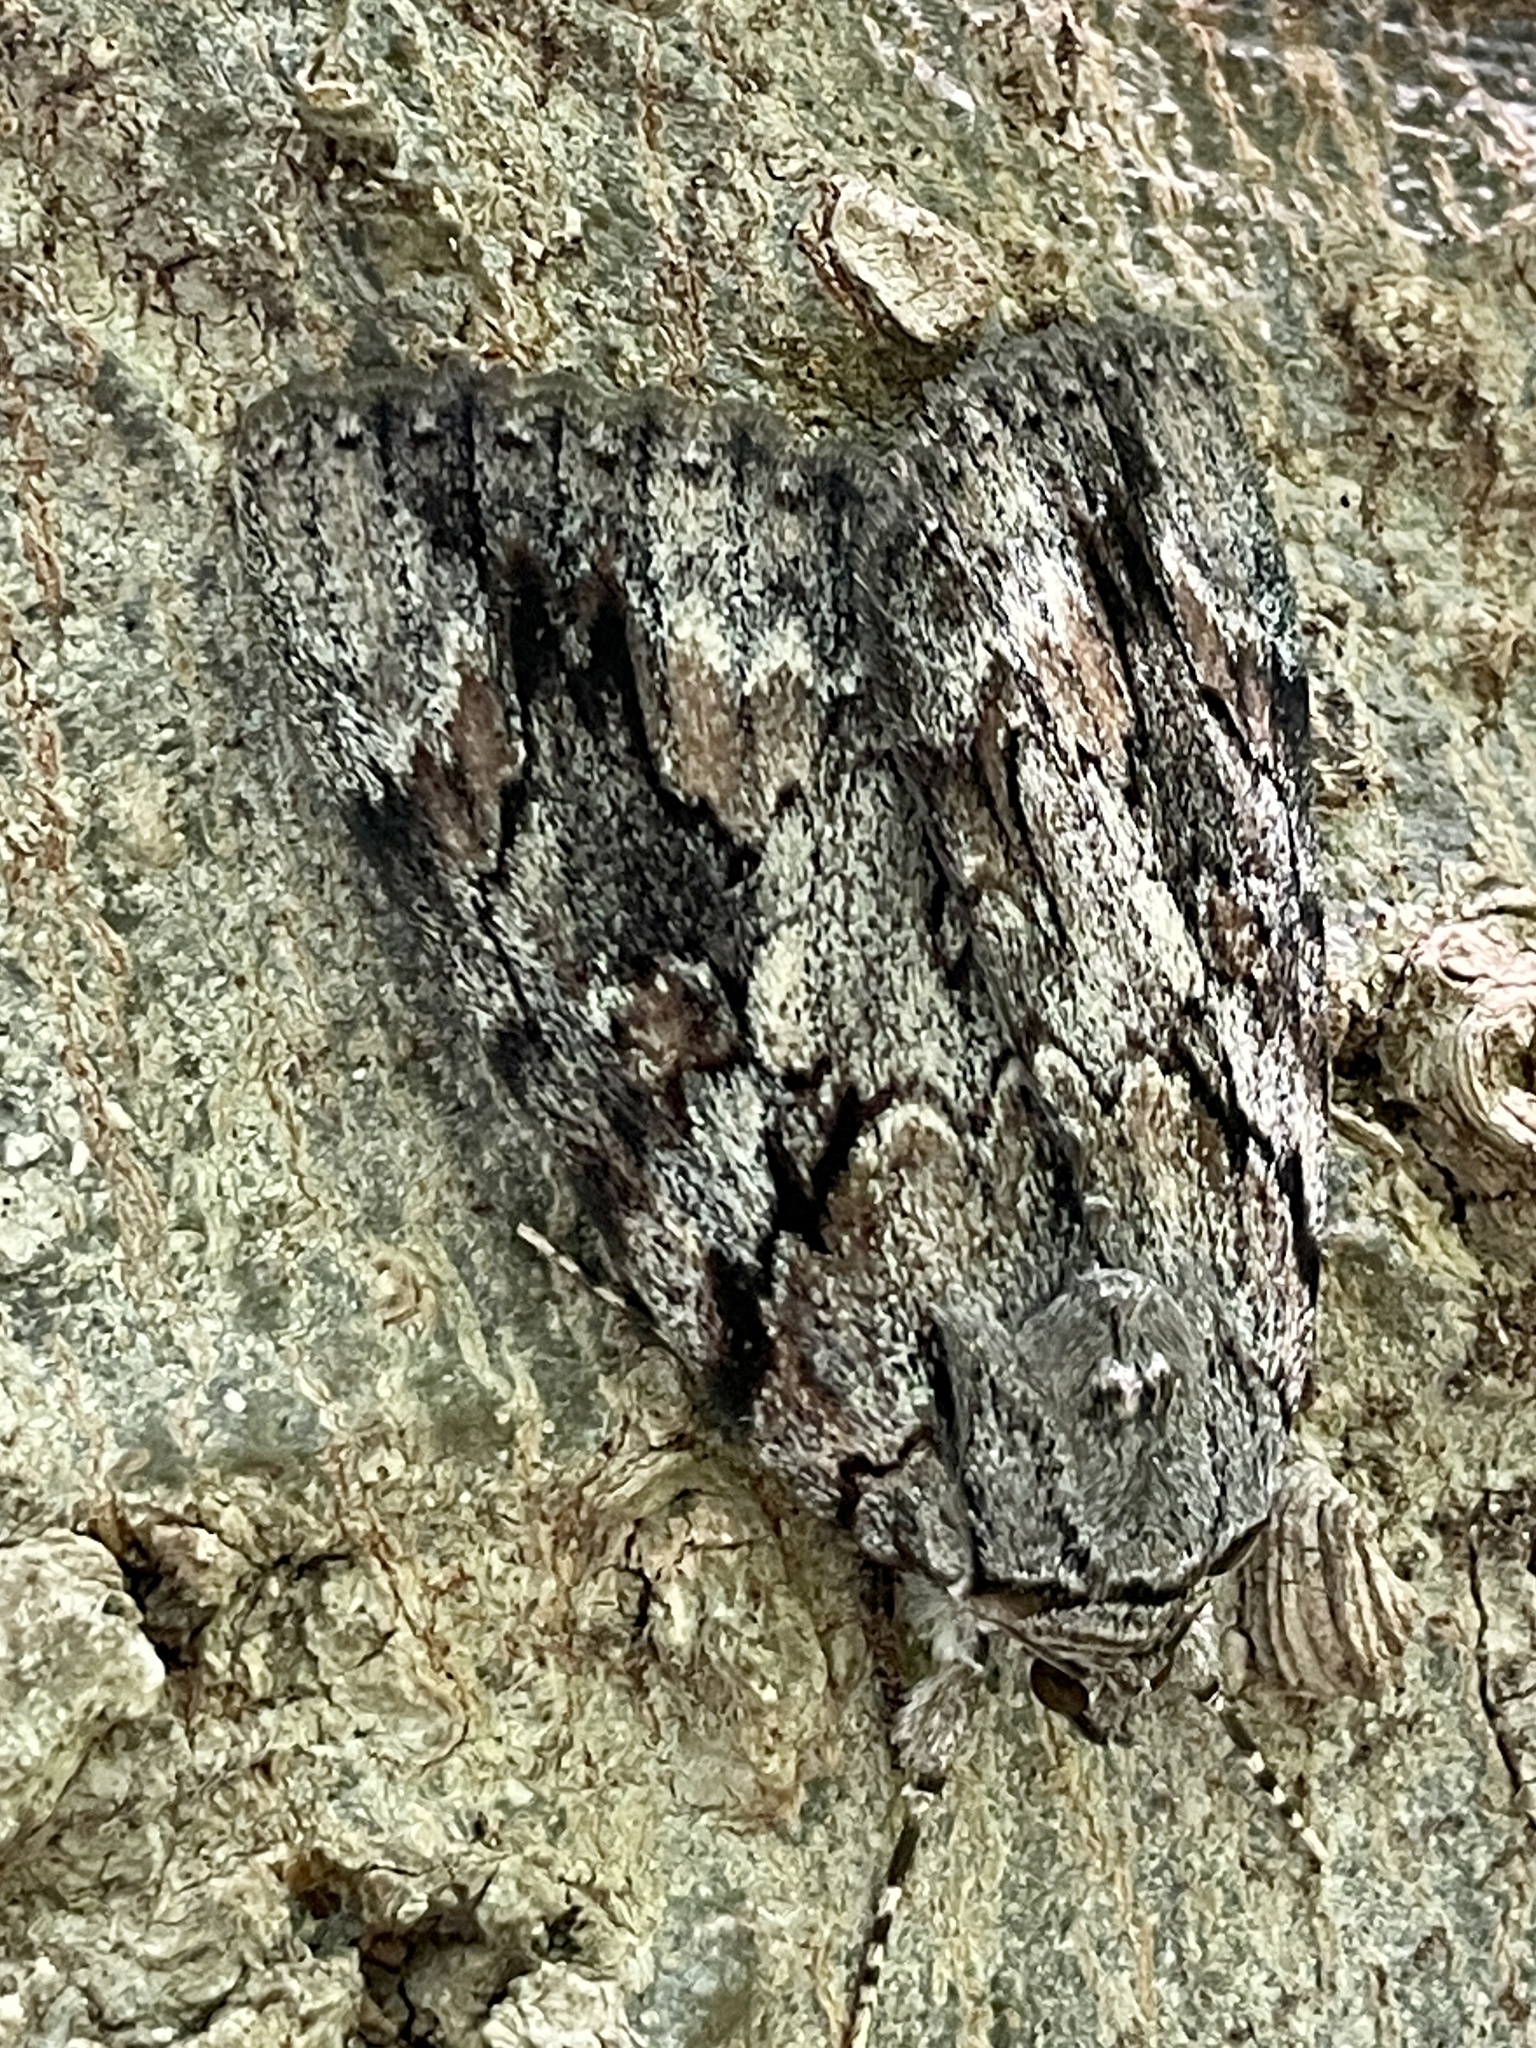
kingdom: Animalia
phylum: Arthropoda
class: Insecta
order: Lepidoptera
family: Erebidae
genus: Catocala
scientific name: Catocala agrippina
